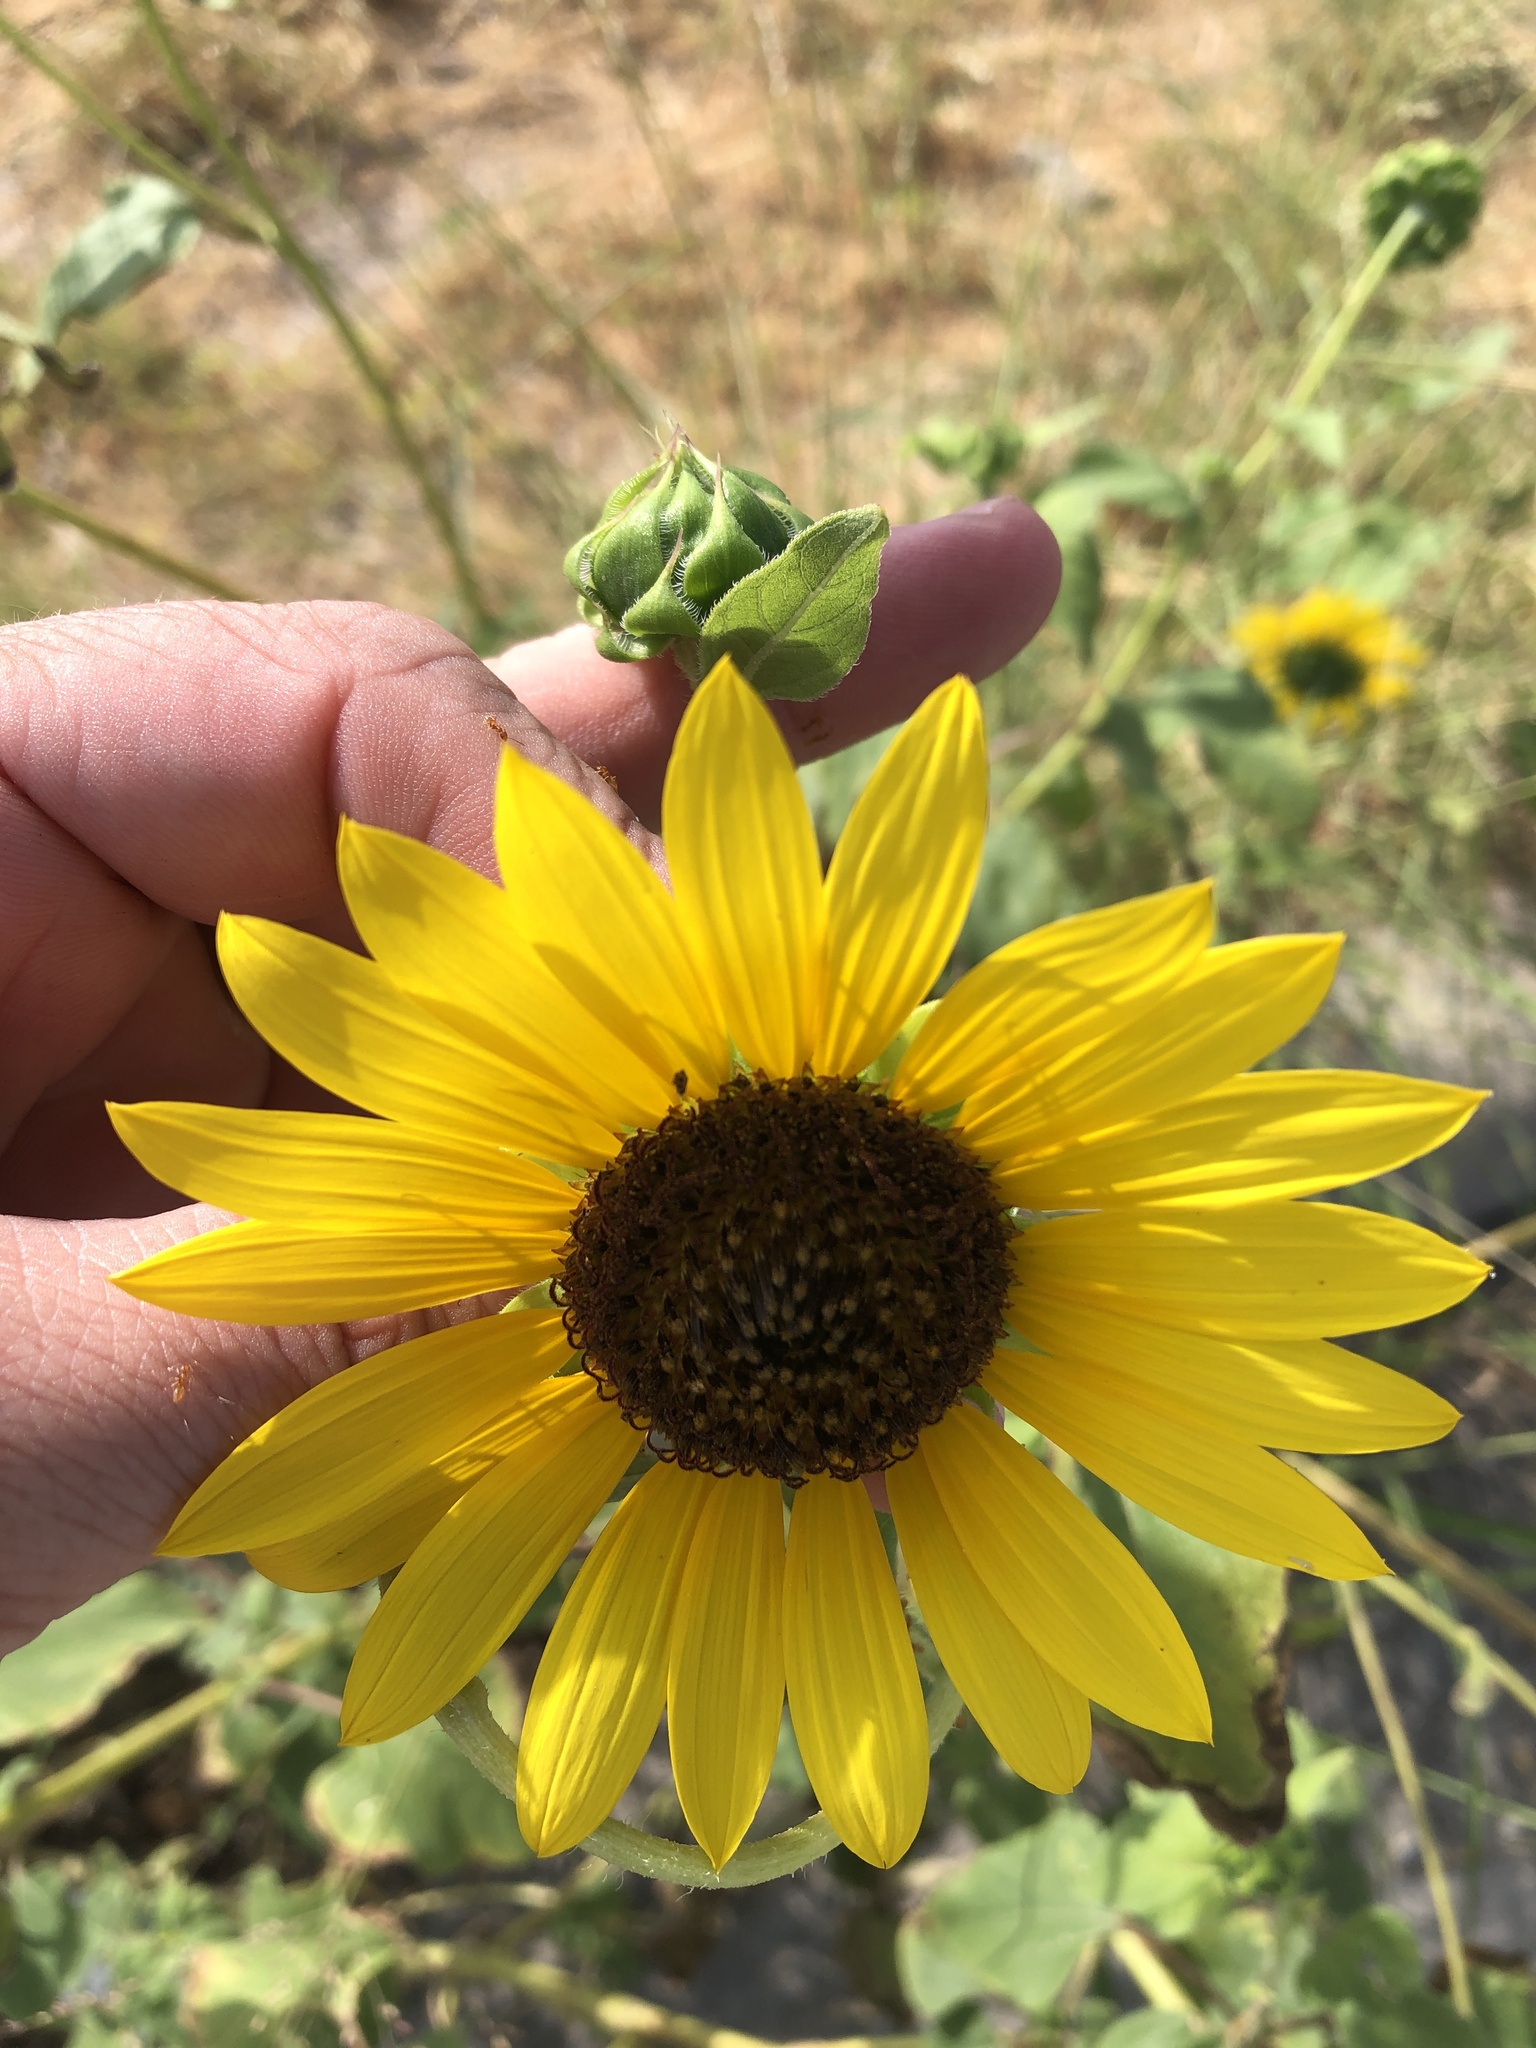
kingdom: Plantae
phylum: Tracheophyta
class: Magnoliopsida
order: Asterales
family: Asteraceae
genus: Helianthus
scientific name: Helianthus annuus
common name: Sunflower
